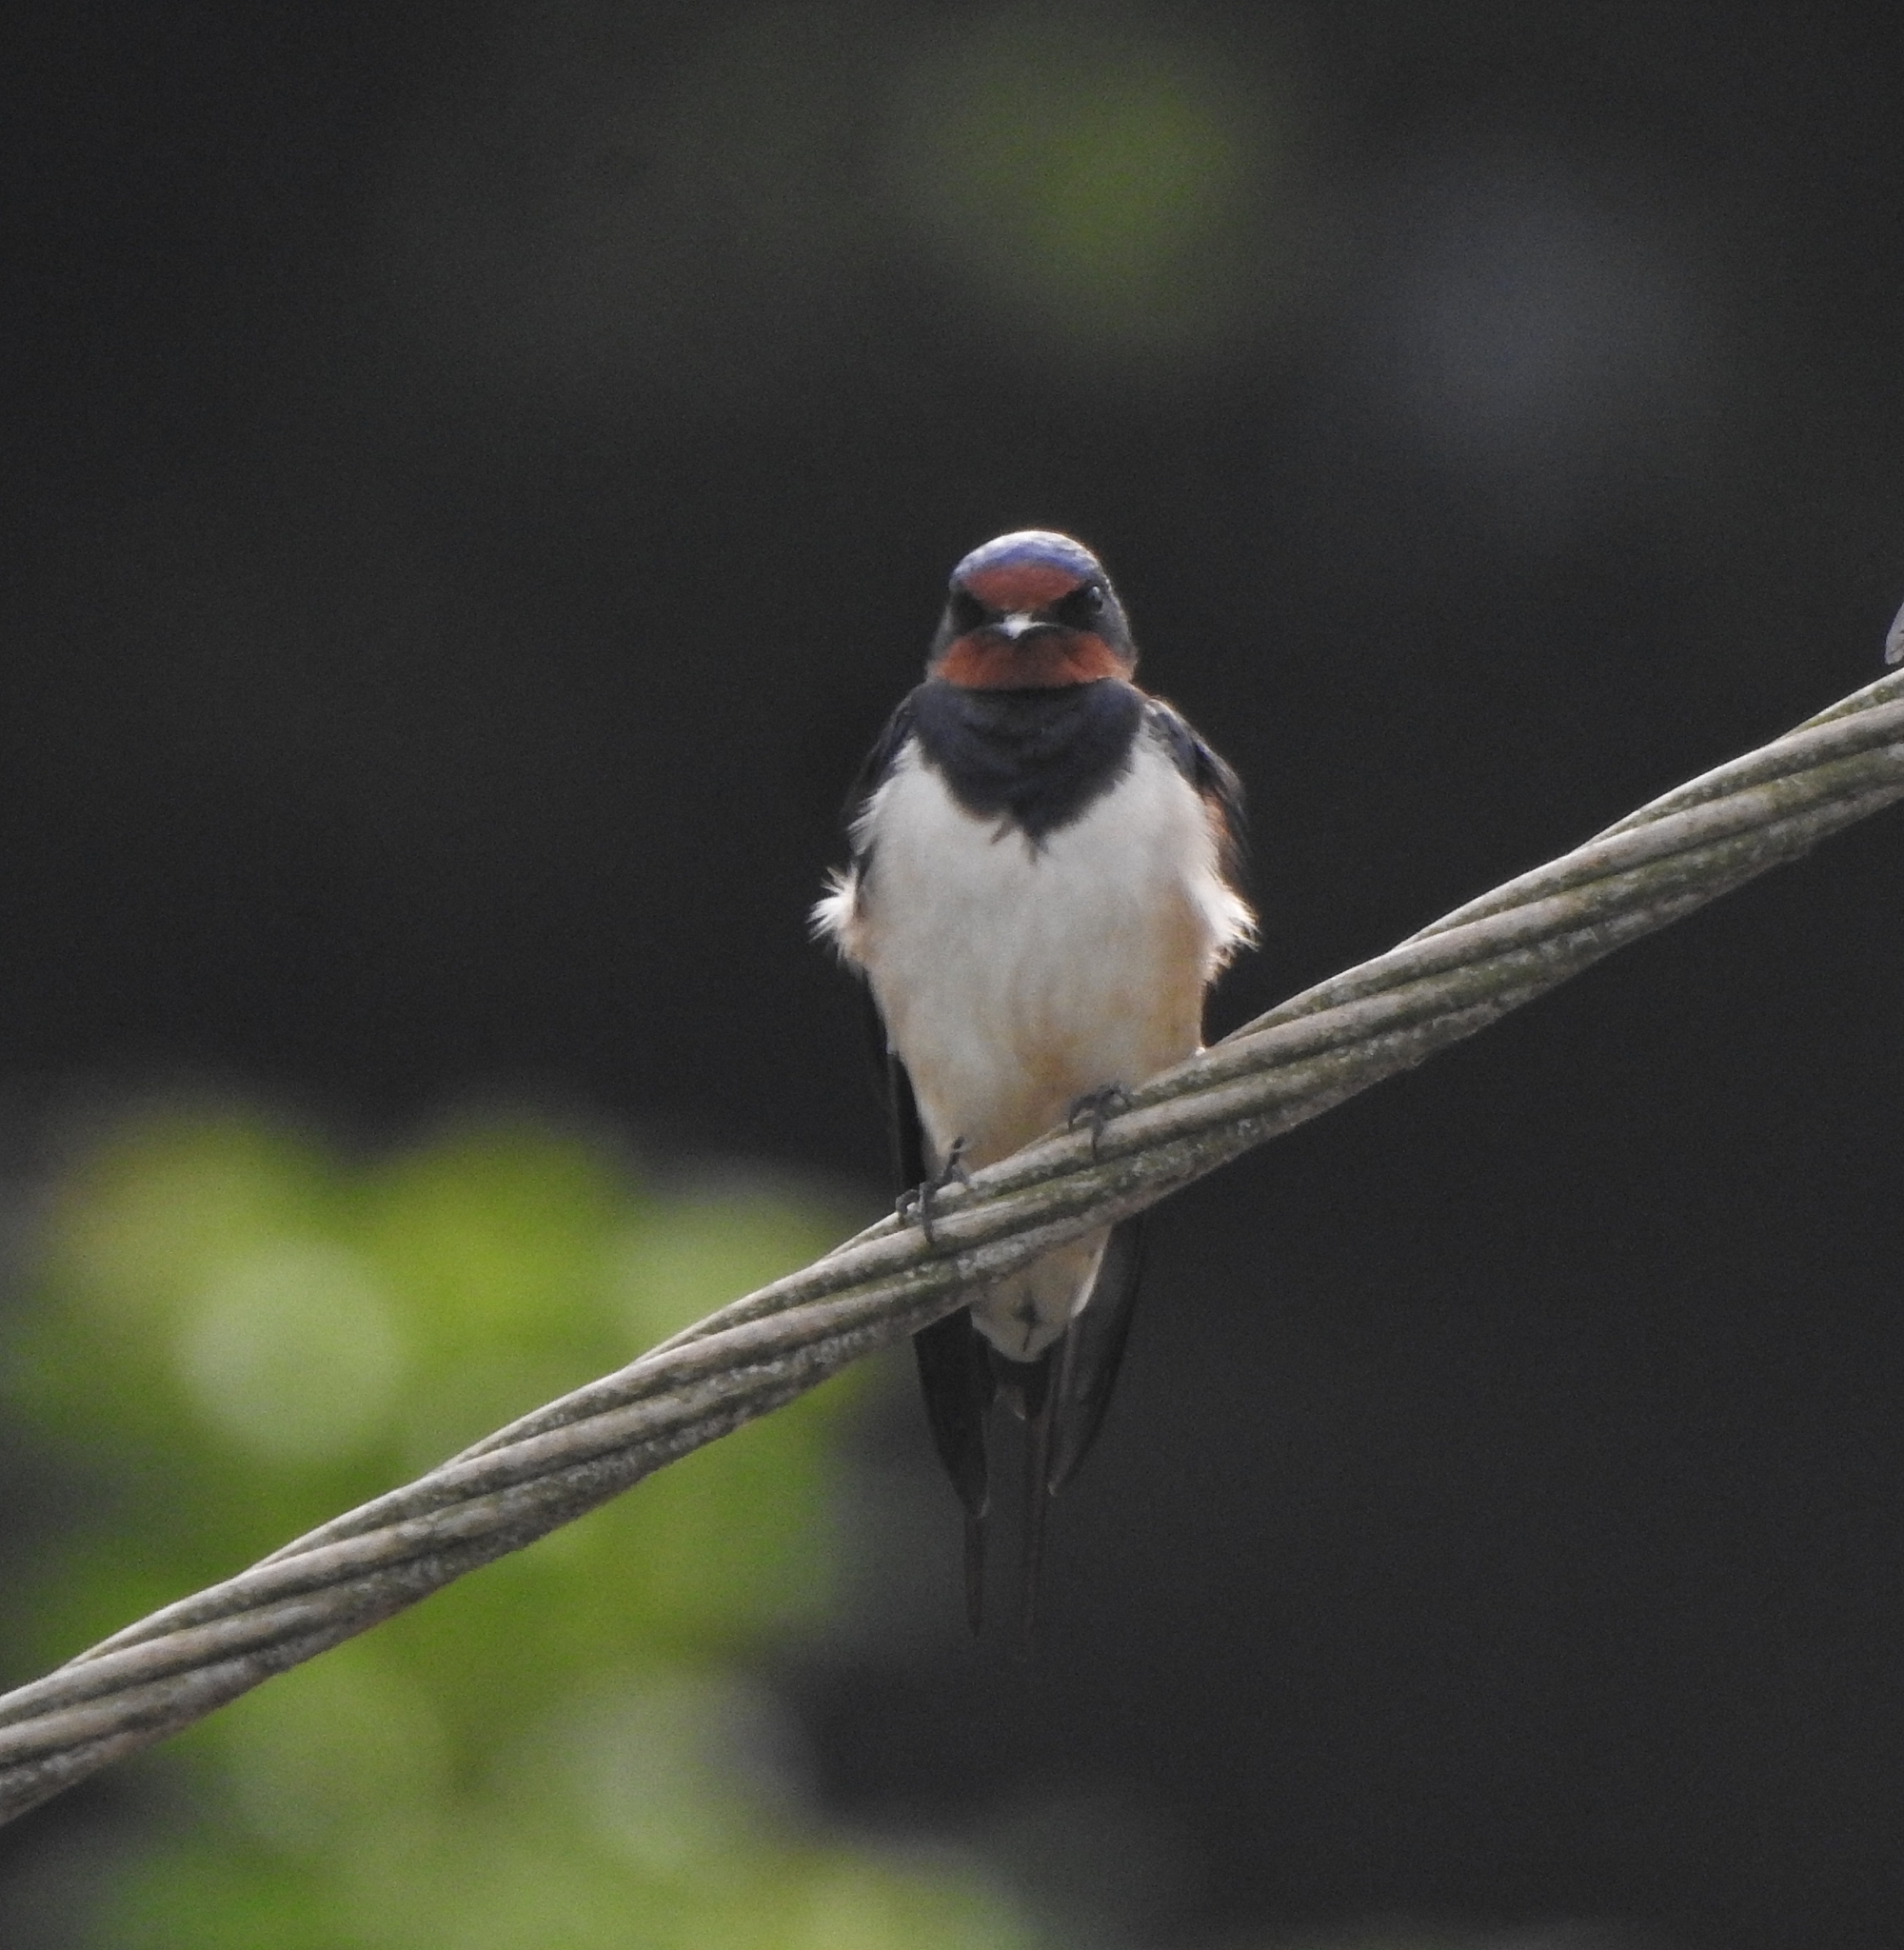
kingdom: Animalia
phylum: Chordata
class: Aves
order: Passeriformes
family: Hirundinidae
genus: Hirundo
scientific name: Hirundo rustica
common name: Barn swallow
